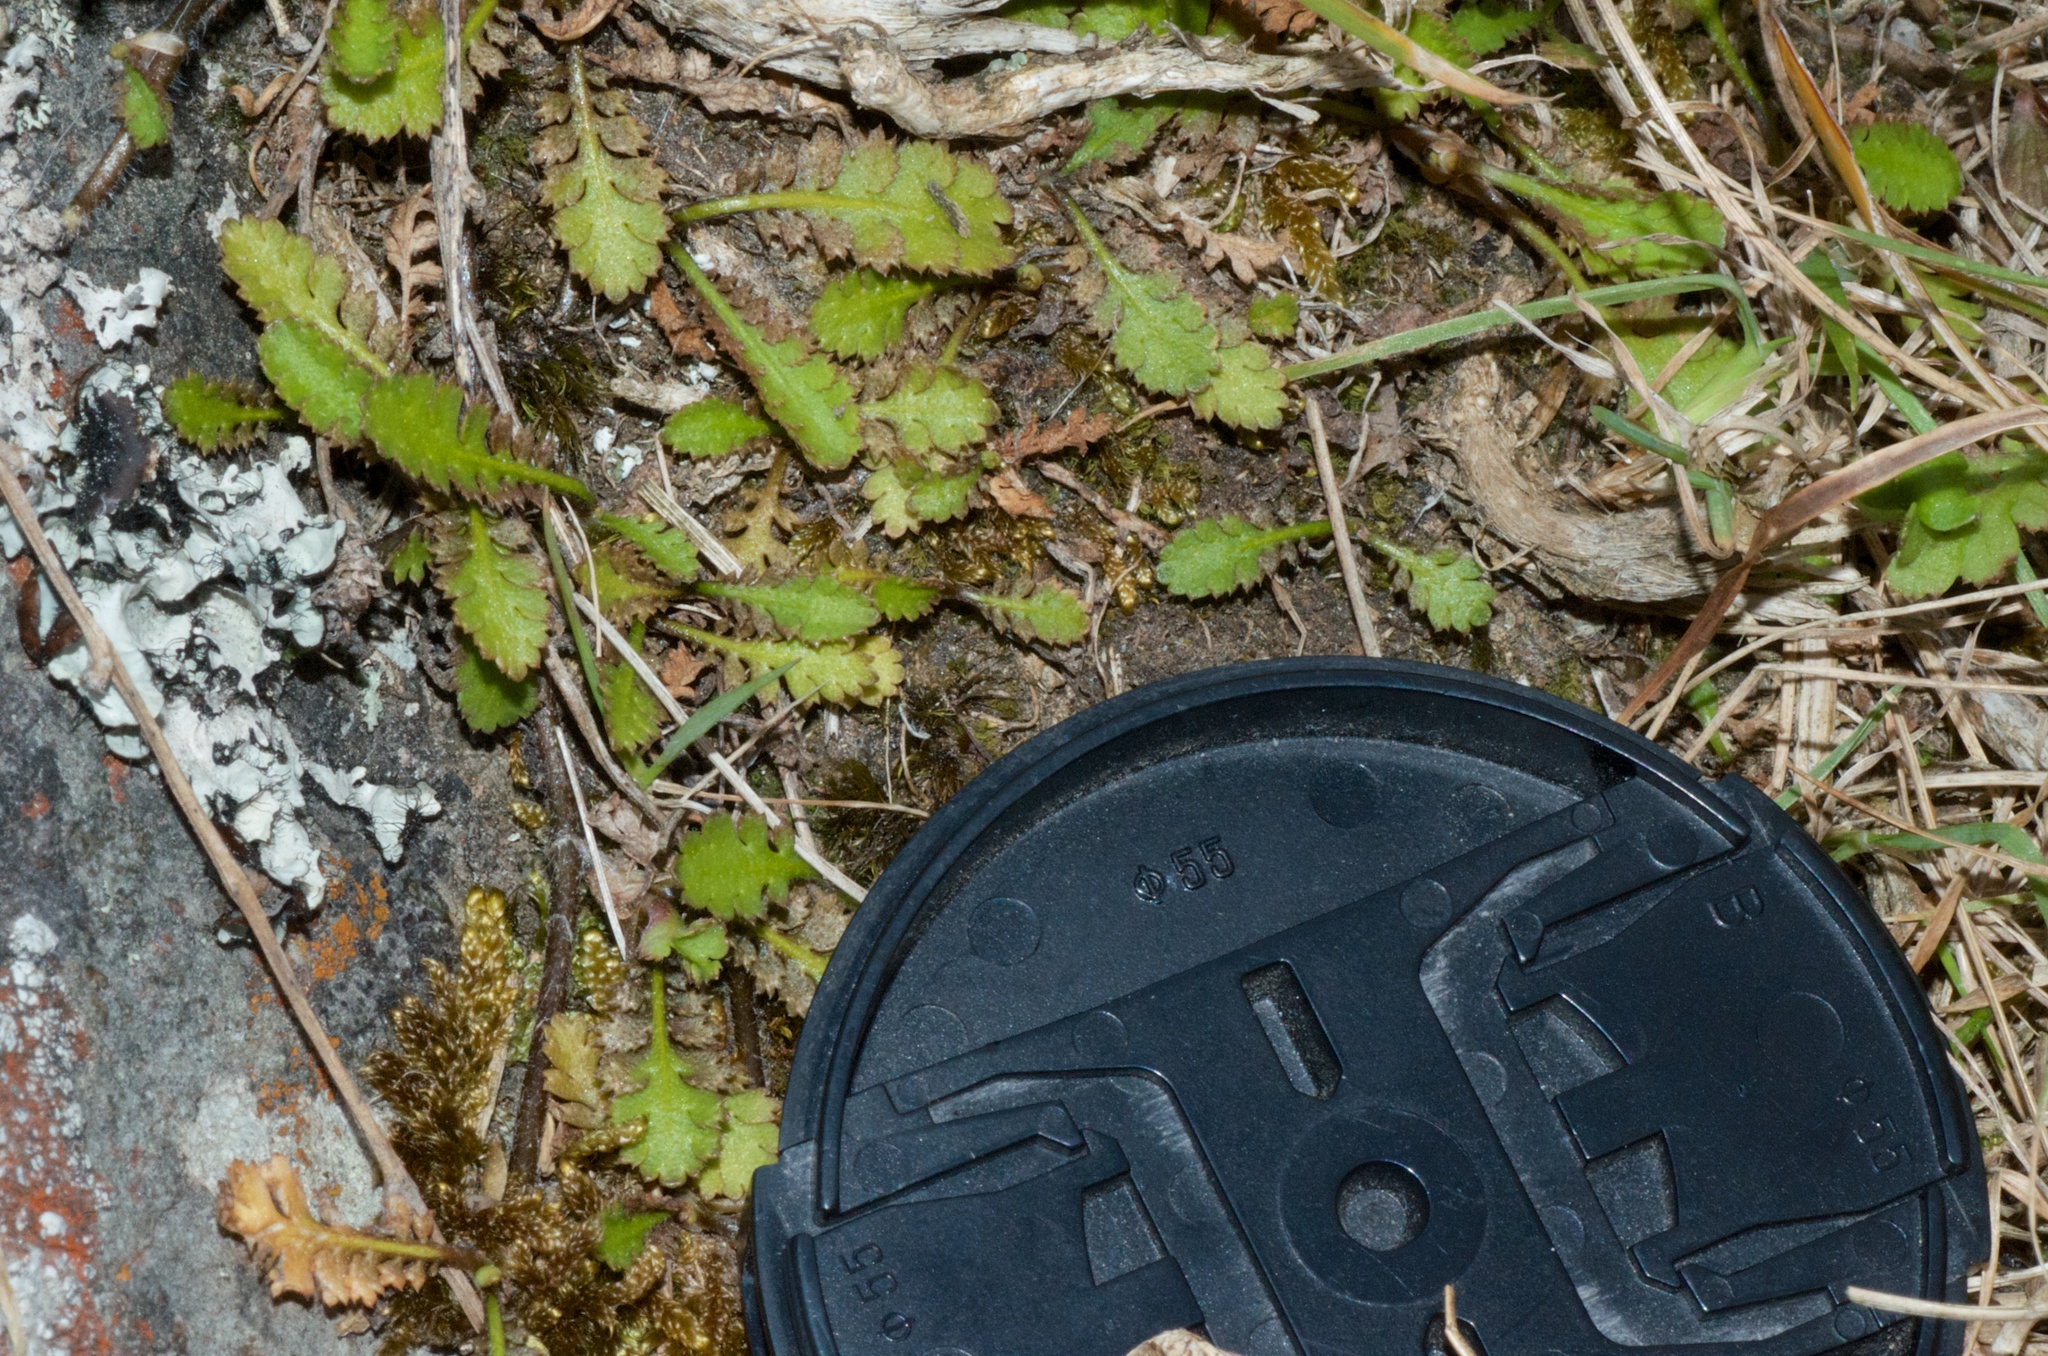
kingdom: Plantae
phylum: Tracheophyta
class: Magnoliopsida
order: Asterales
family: Asteraceae
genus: Leptinella
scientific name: Leptinella squalida
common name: New zealand brass-buttons
